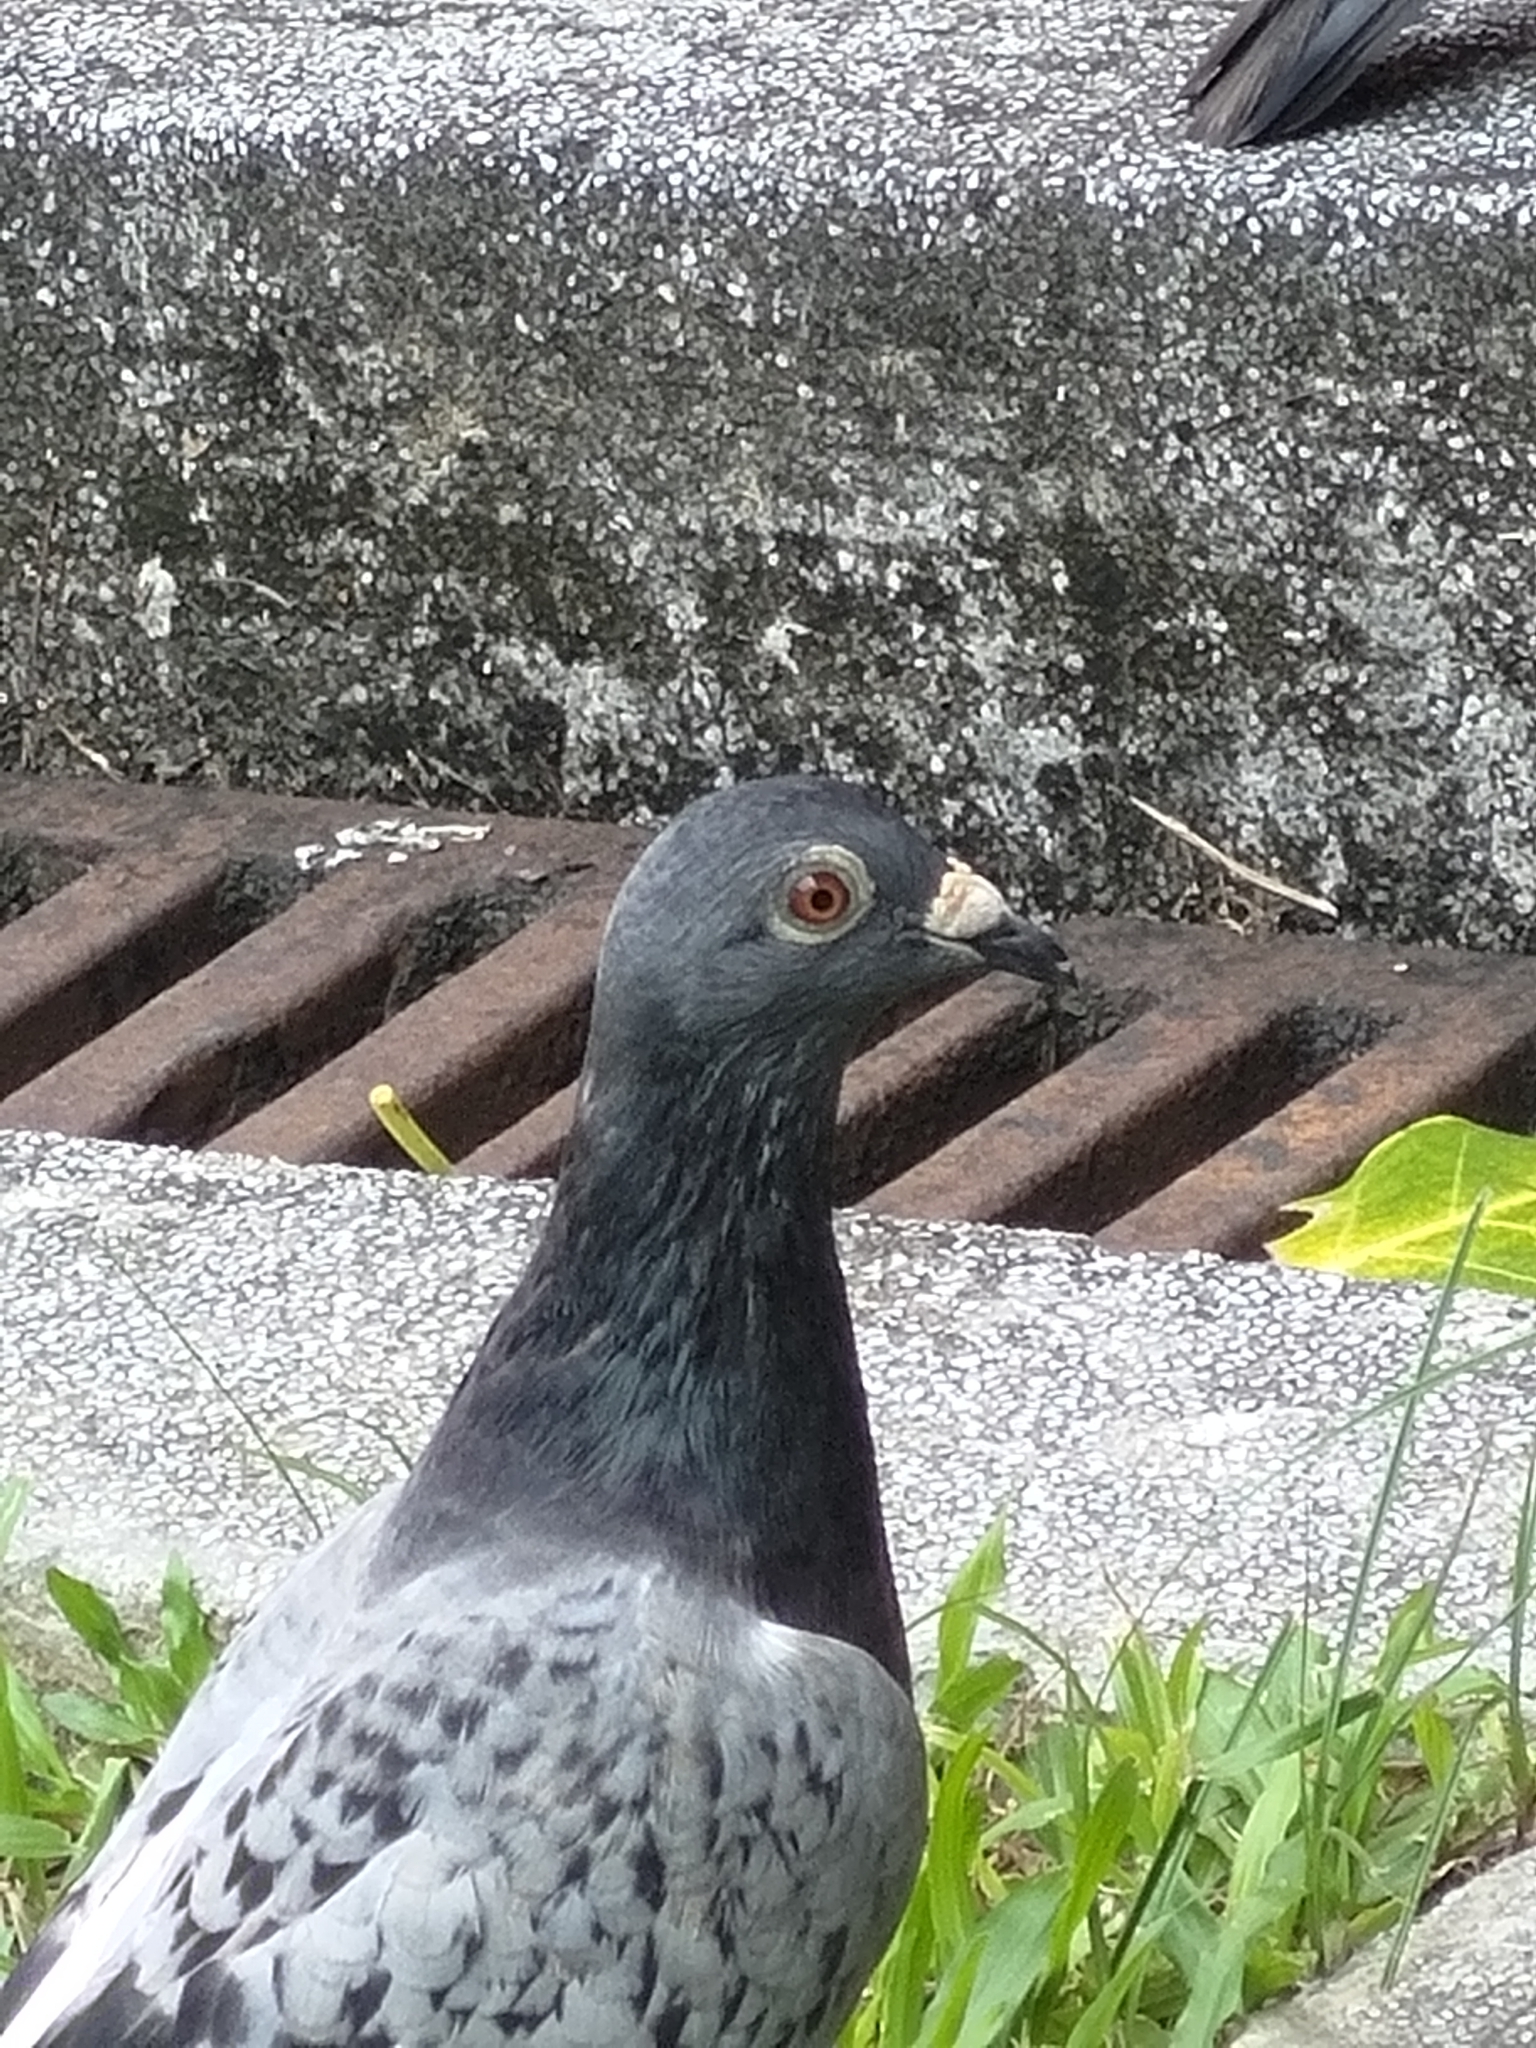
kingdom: Animalia
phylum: Chordata
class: Aves
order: Columbiformes
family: Columbidae
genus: Columba
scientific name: Columba livia
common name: Rock pigeon
